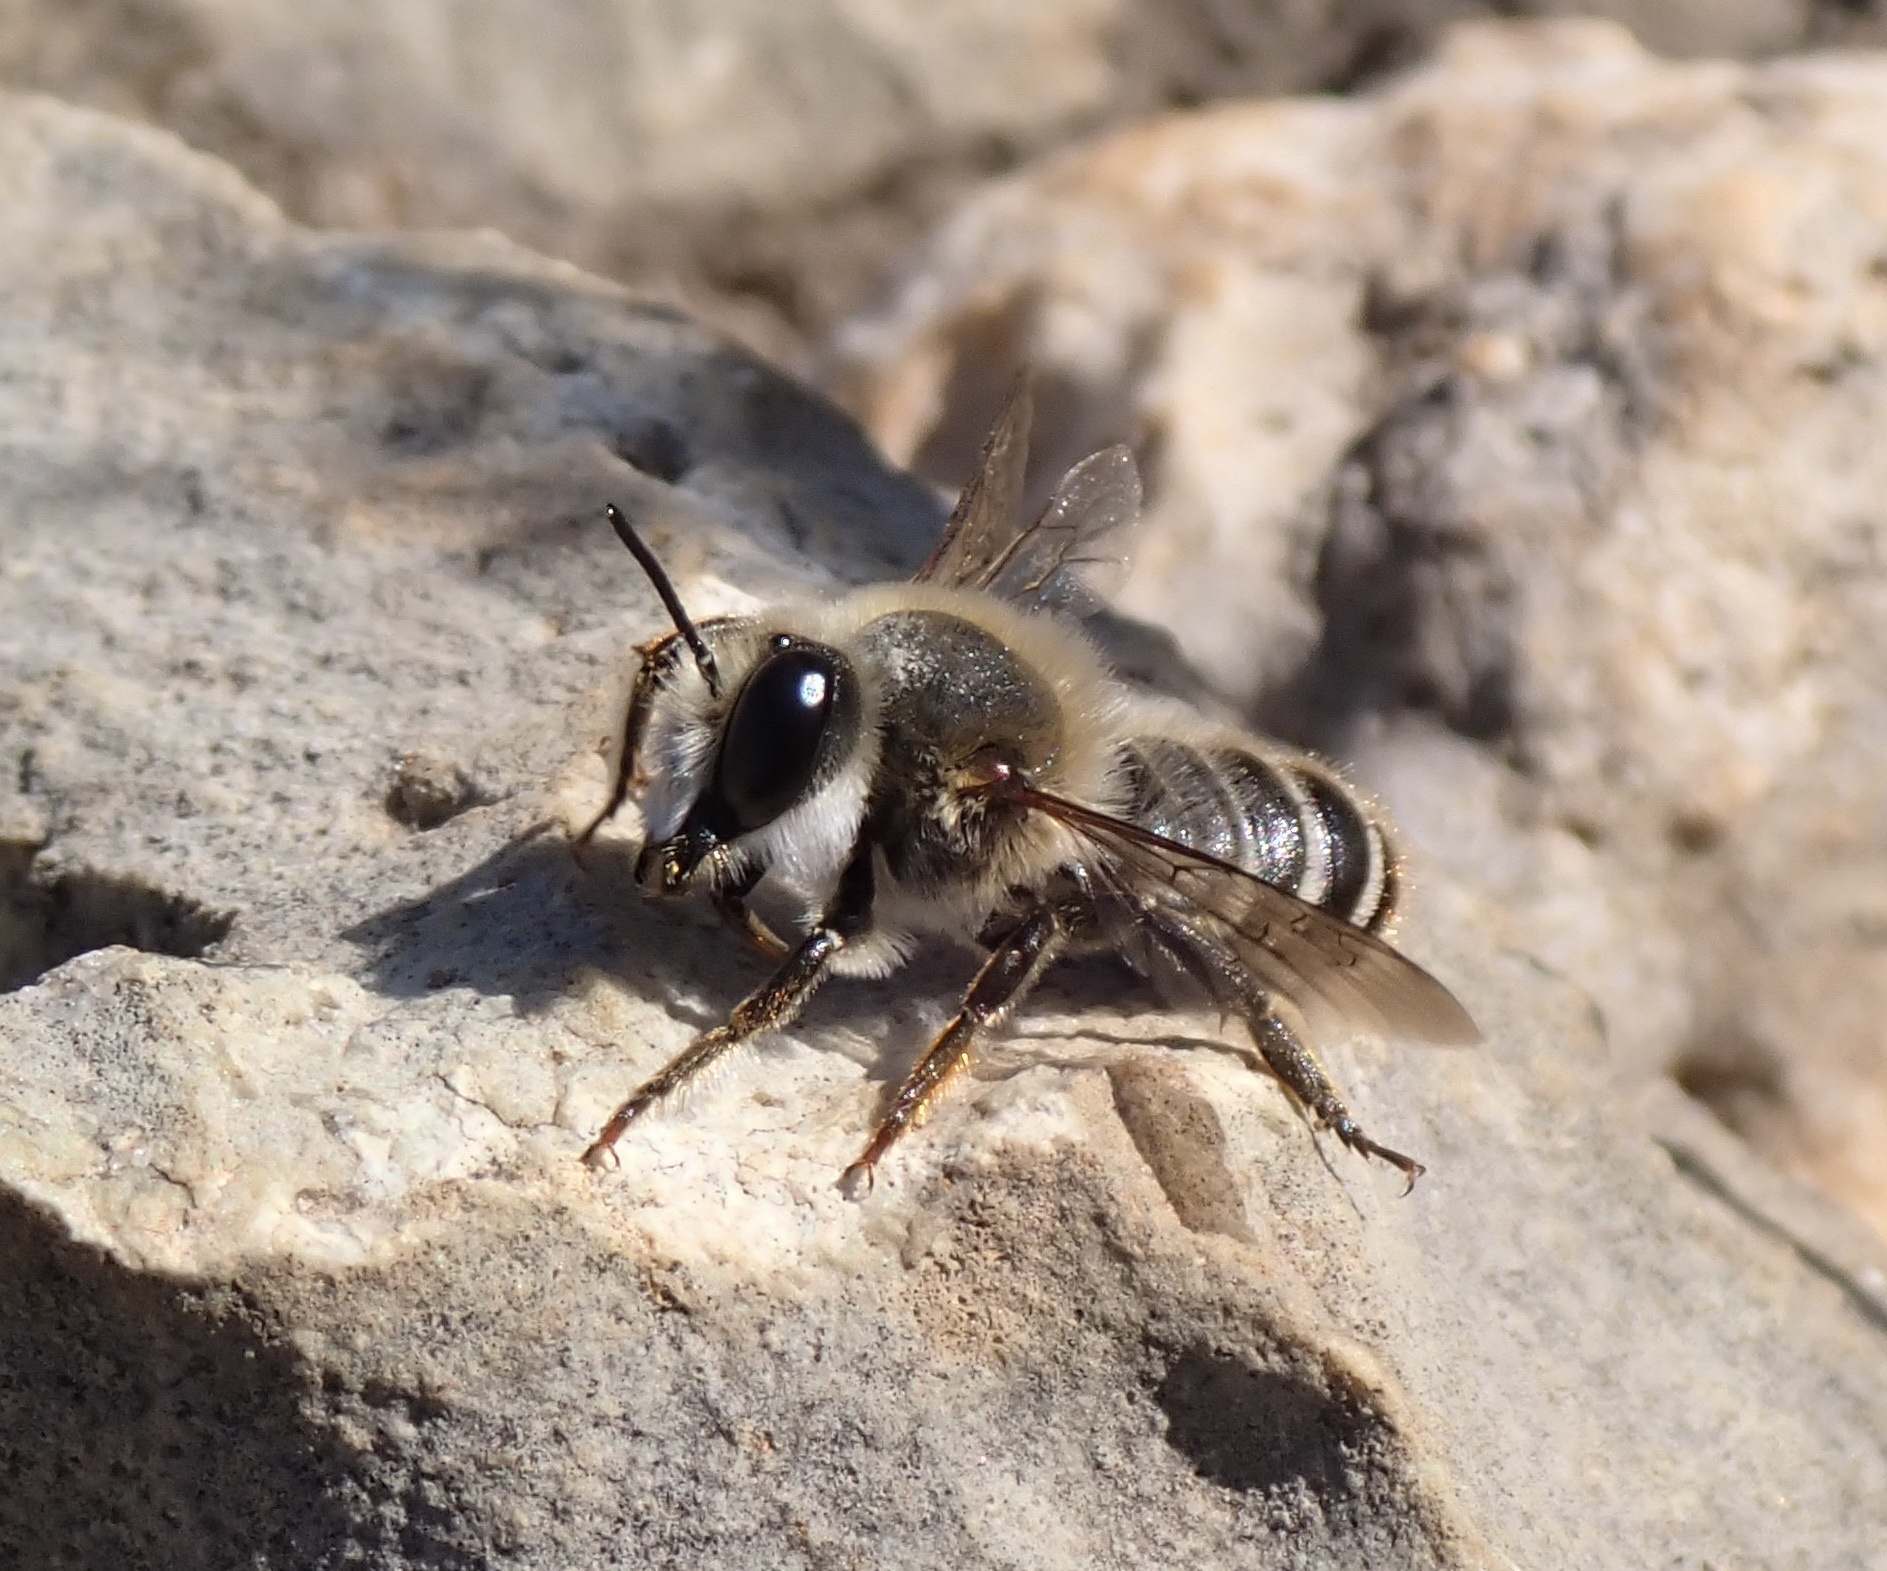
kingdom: Animalia
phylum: Arthropoda
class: Insecta
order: Hymenoptera
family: Megachilidae
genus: Megachile
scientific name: Megachile roeweri
